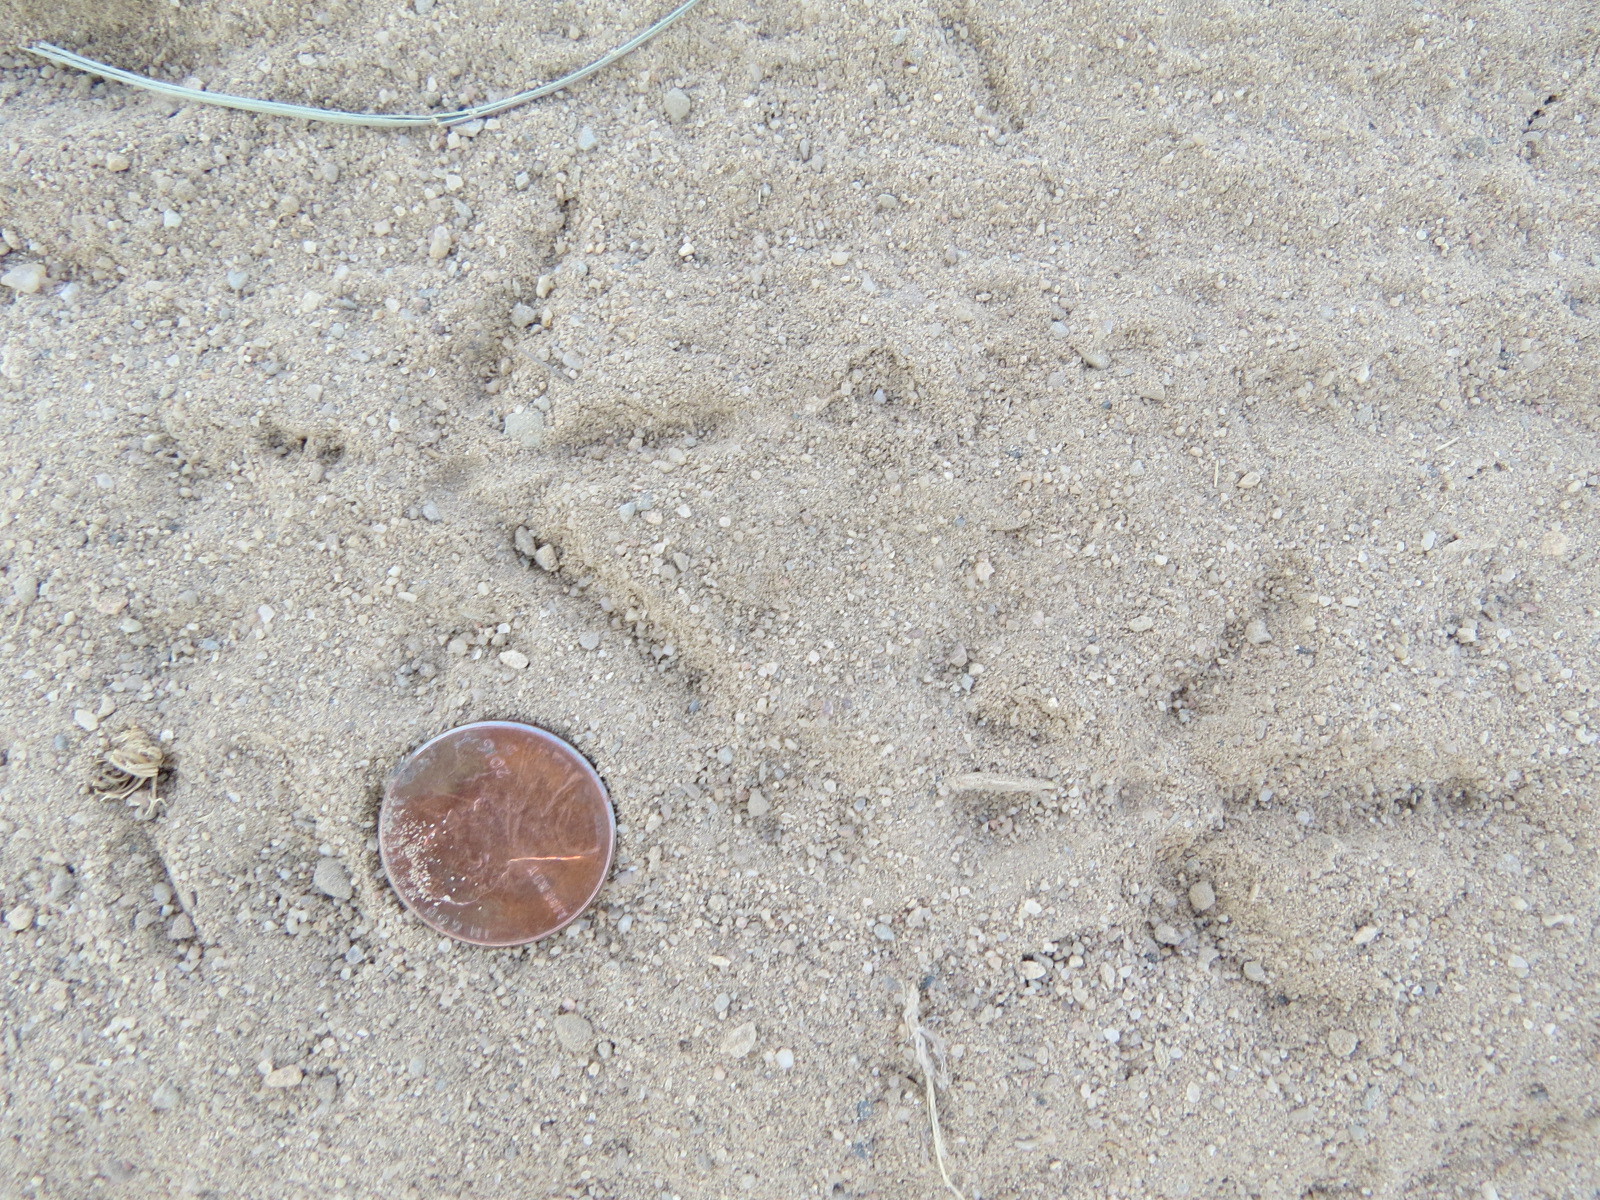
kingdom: Animalia
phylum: Chordata
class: Aves
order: Galliformes
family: Odontophoridae
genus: Callipepla
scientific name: Callipepla californica
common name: California quail
